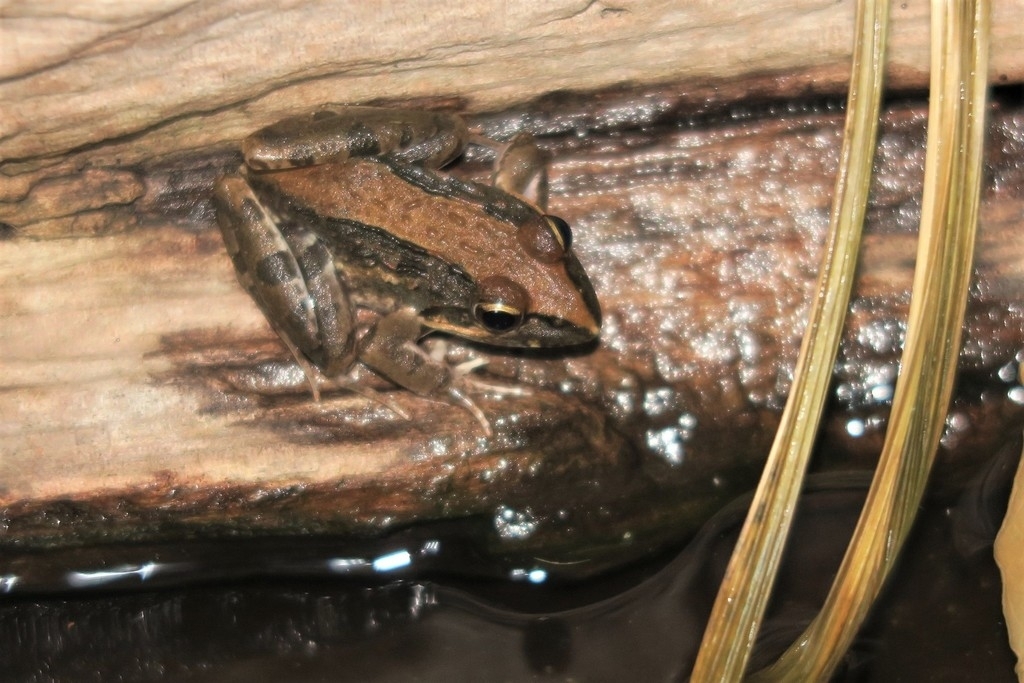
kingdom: Animalia
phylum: Chordata
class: Amphibia
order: Anura
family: Pyxicephalidae
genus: Strongylopus
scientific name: Strongylopus grayii
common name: Gray's stream frog
